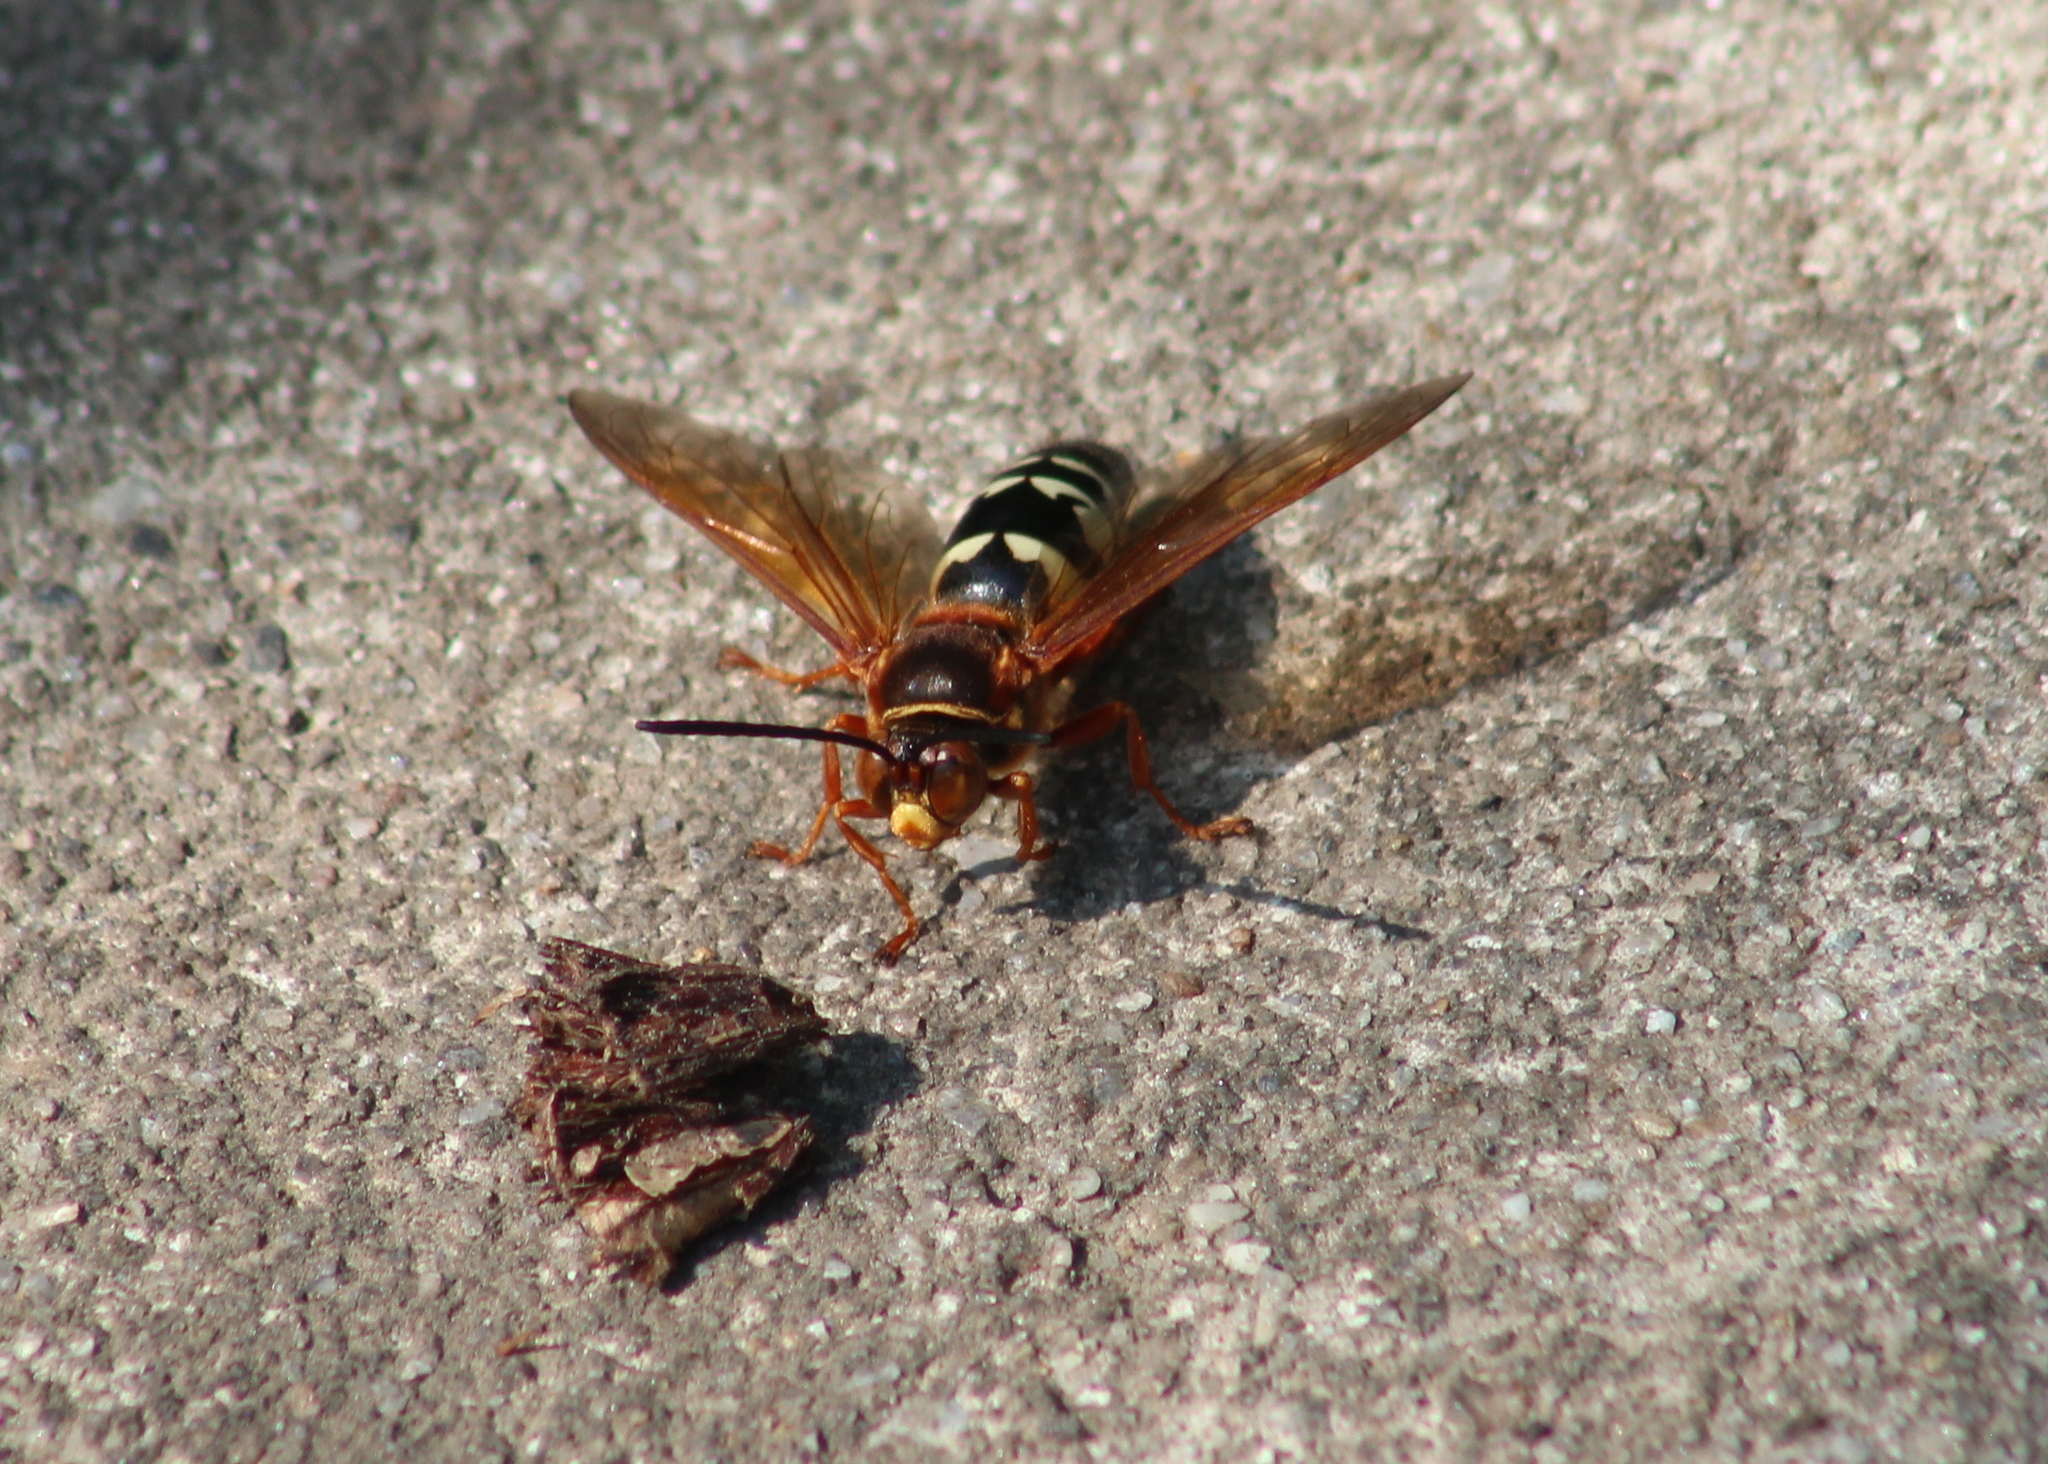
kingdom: Animalia
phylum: Arthropoda
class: Insecta
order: Hymenoptera
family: Crabronidae
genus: Sphecius
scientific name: Sphecius speciosus
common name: Cicada killer
